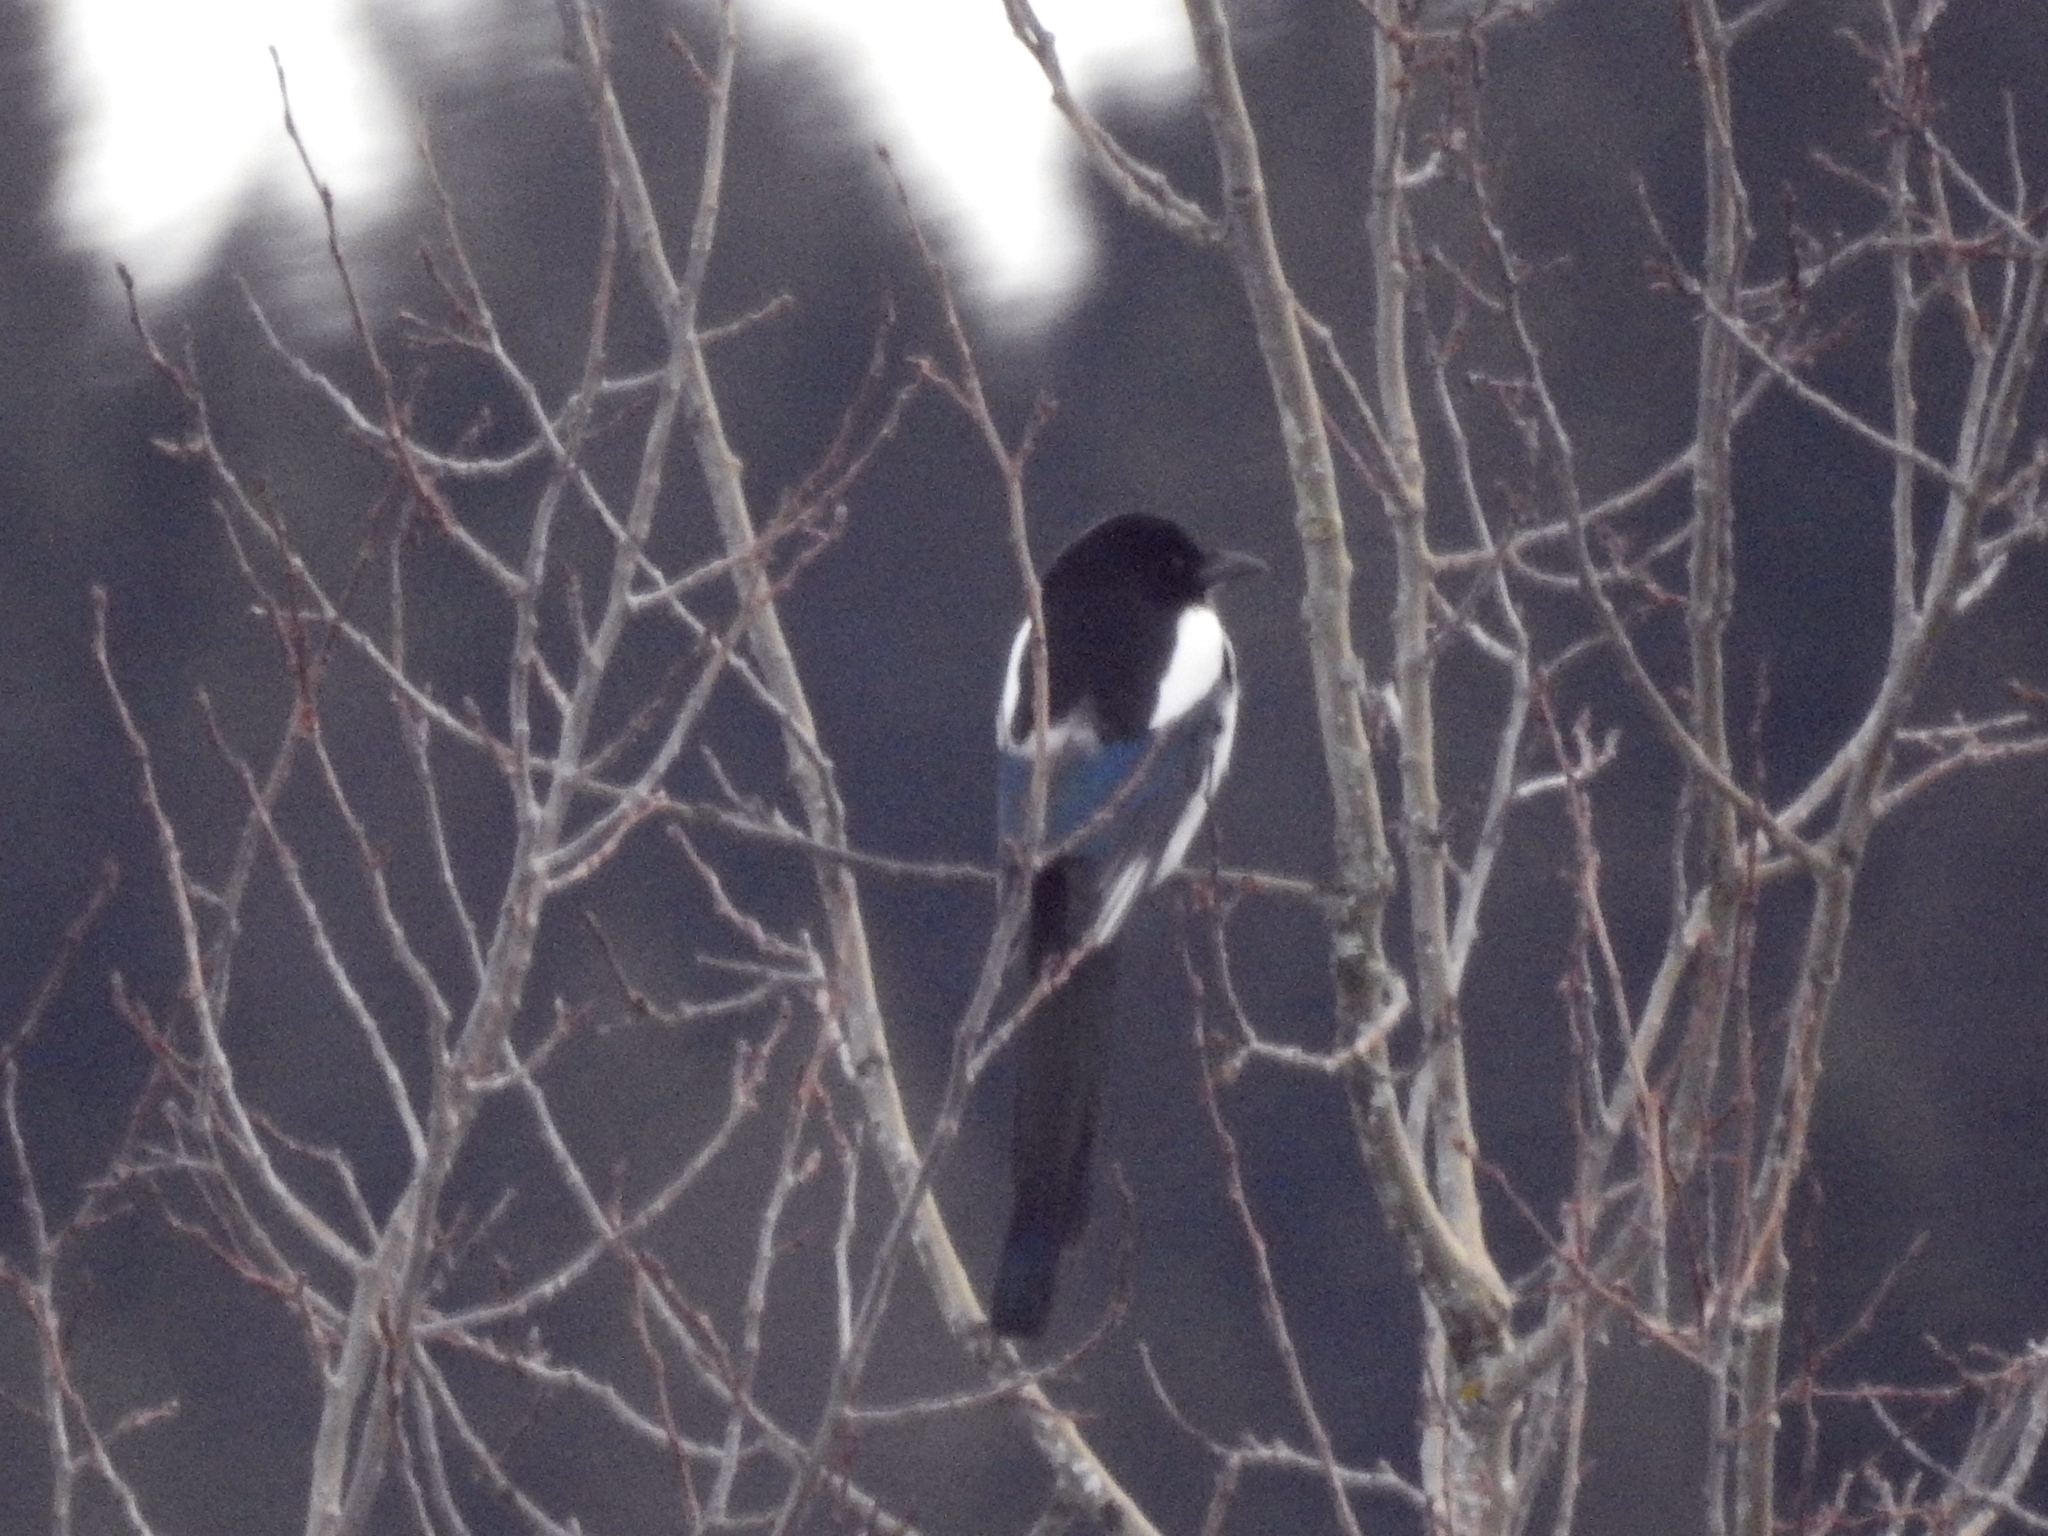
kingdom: Animalia
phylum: Chordata
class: Aves
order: Passeriformes
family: Corvidae
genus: Pica
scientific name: Pica pica
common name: Eurasian magpie
